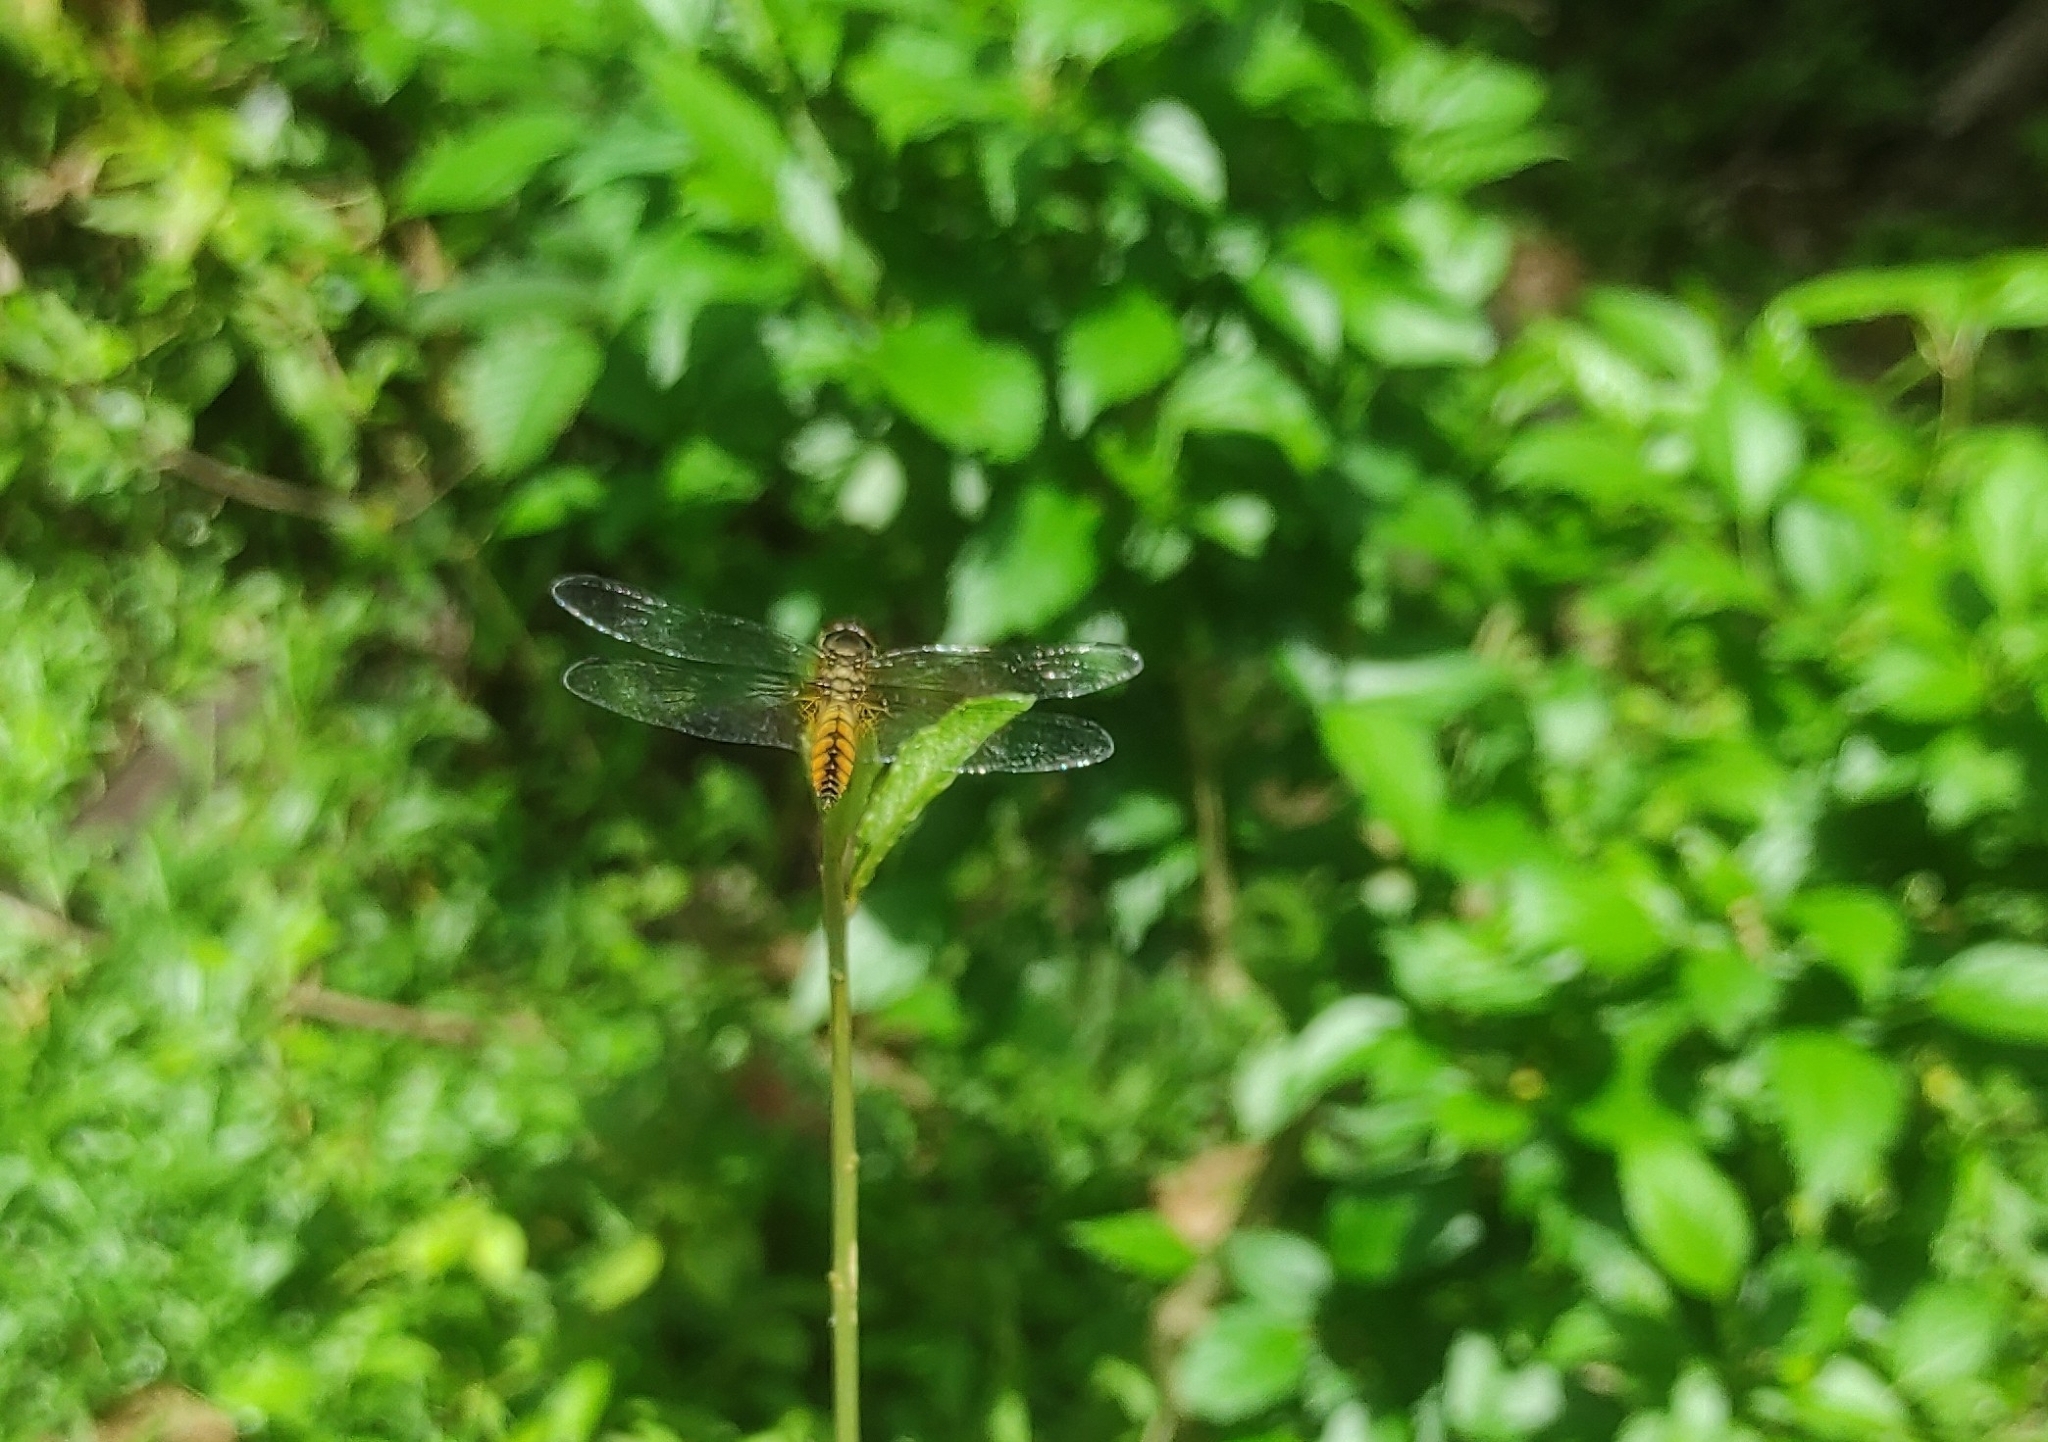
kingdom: Animalia
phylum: Arthropoda
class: Insecta
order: Odonata
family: Libellulidae
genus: Aethriamanta
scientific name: Aethriamanta brevipennis
